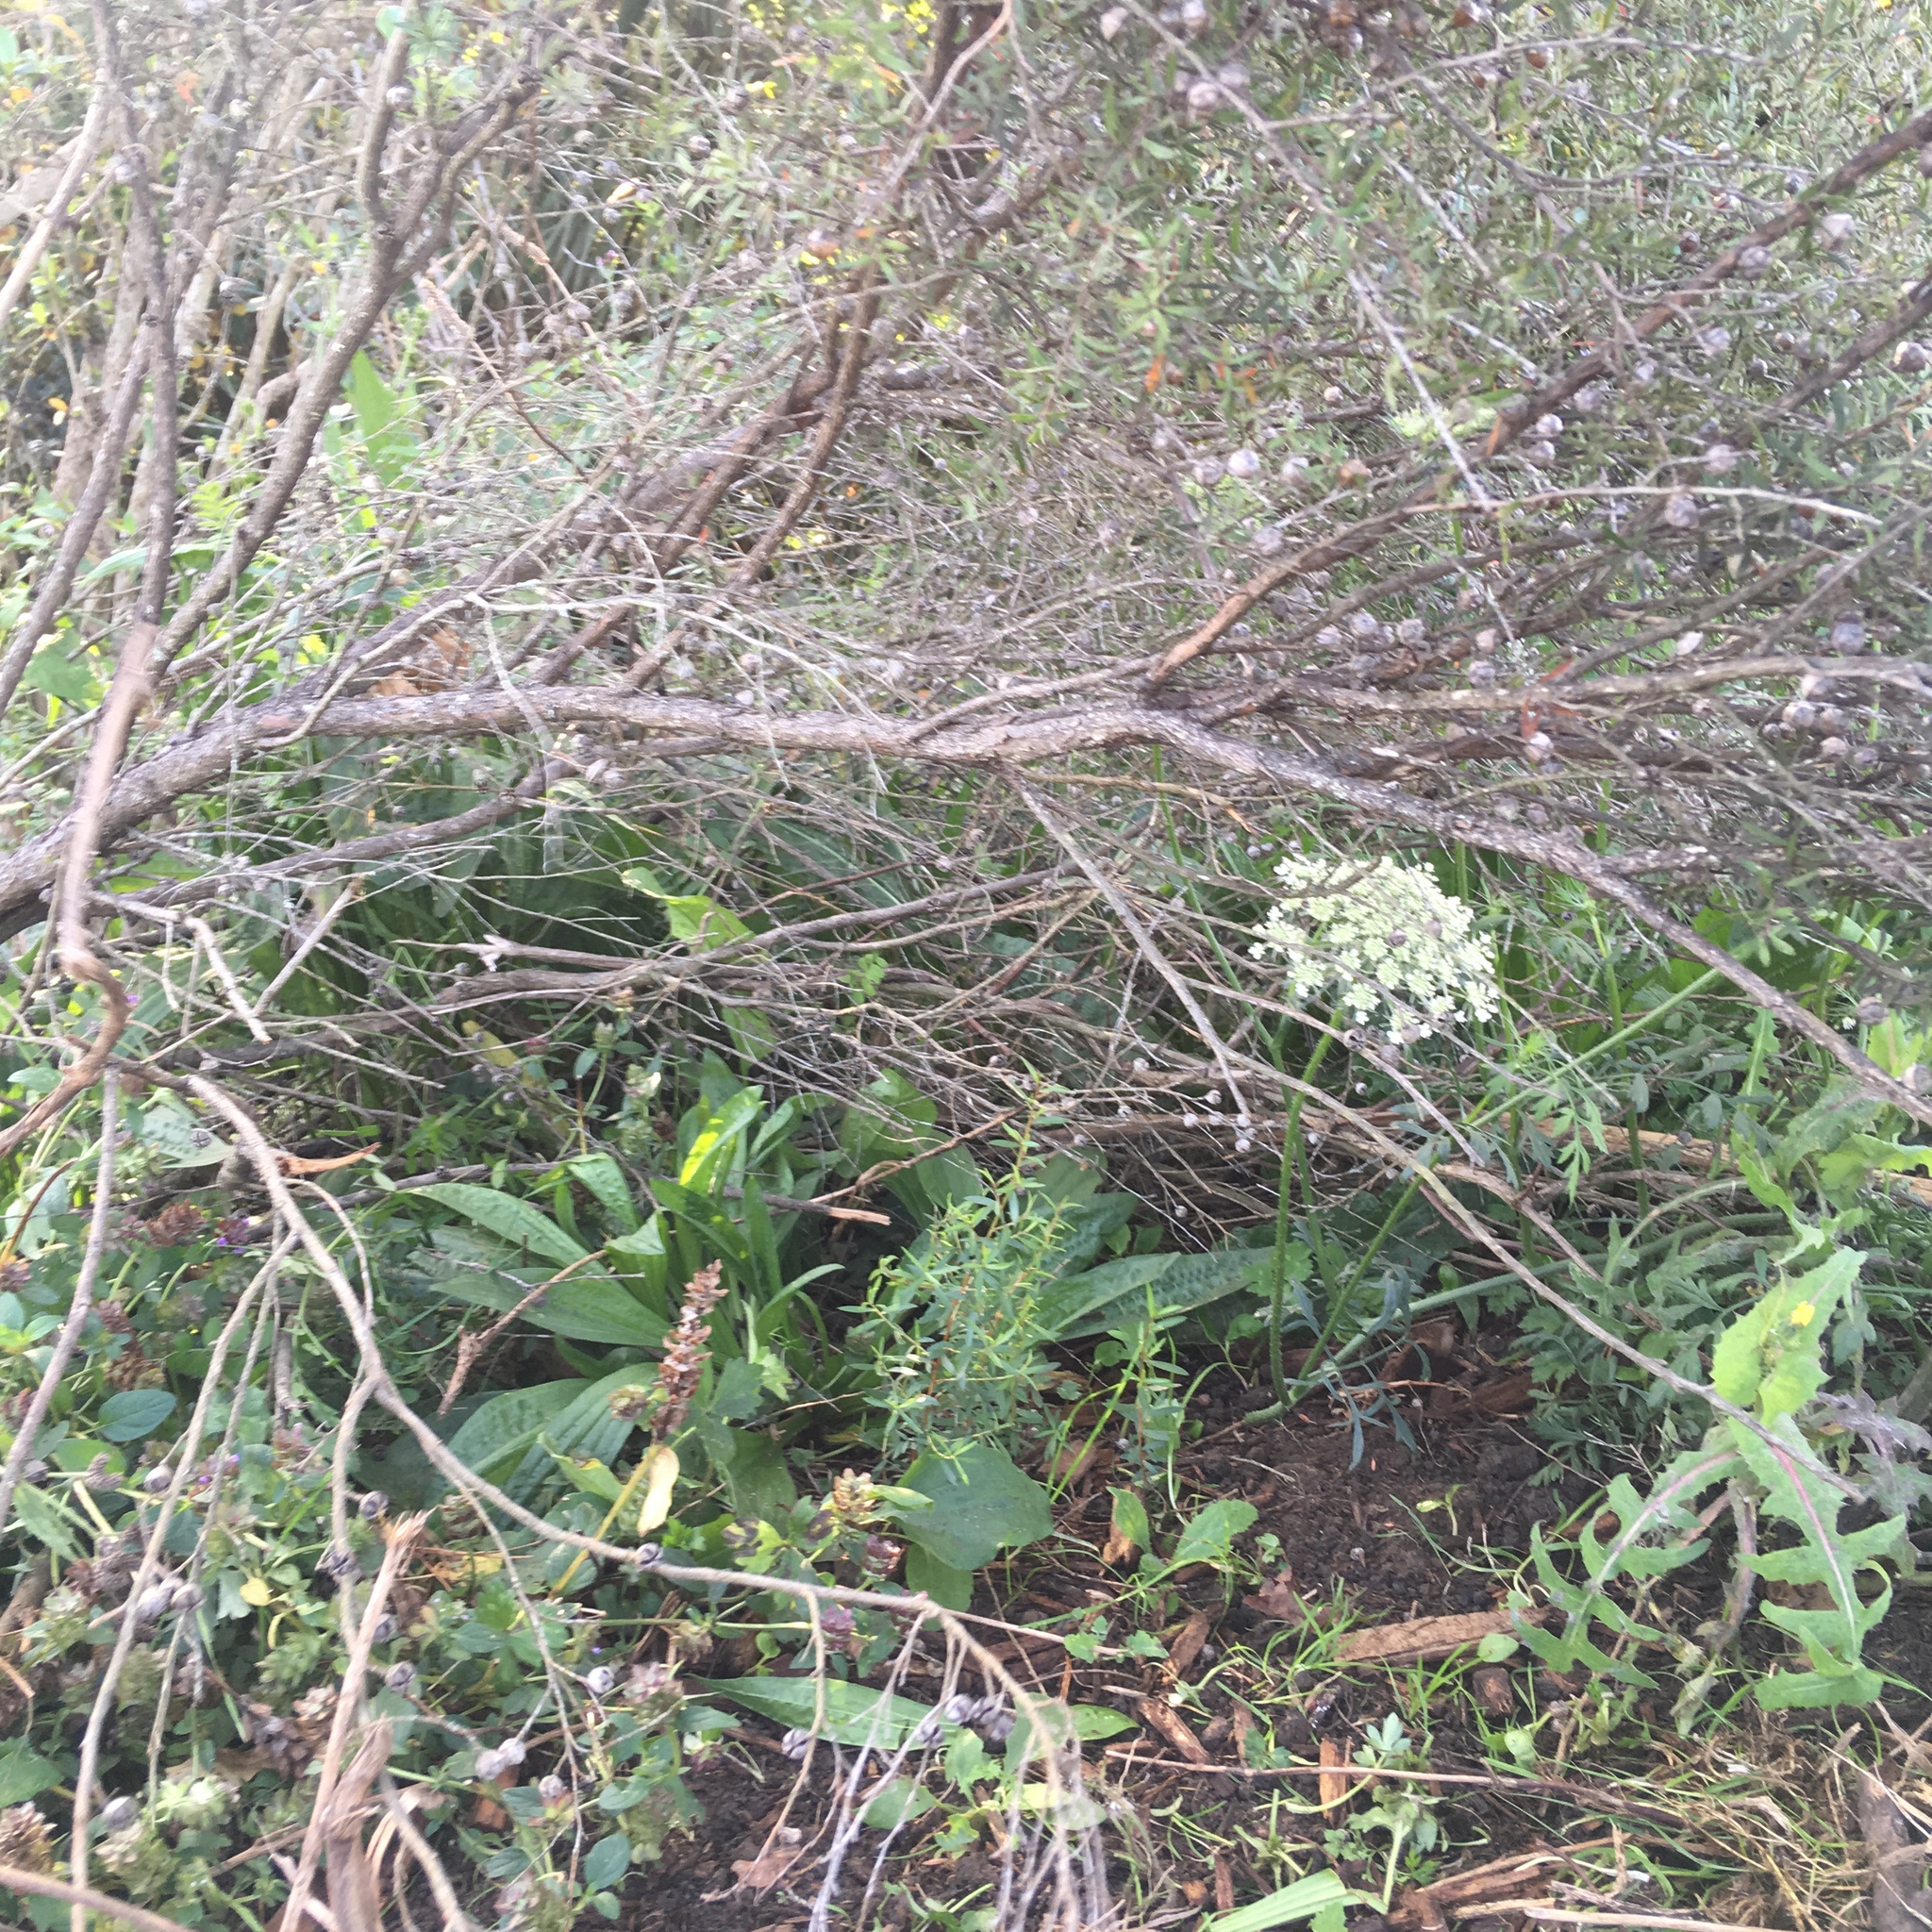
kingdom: Plantae
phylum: Tracheophyta
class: Magnoliopsida
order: Myrtales
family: Myrtaceae
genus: Leptospermum
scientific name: Leptospermum scoparium
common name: Broom tea-tree
